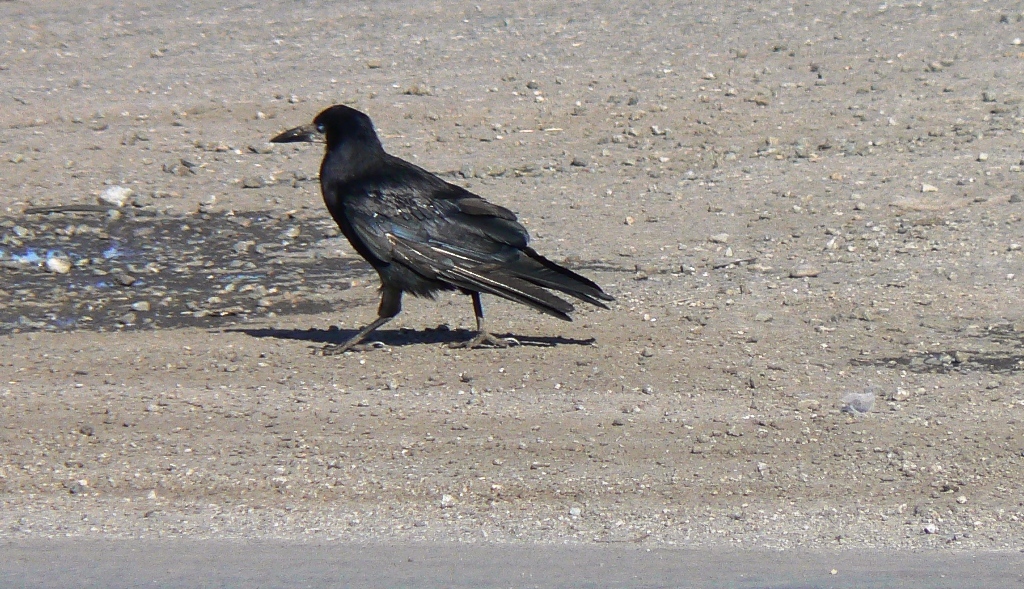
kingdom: Animalia
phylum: Chordata
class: Aves
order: Passeriformes
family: Corvidae
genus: Corvus
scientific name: Corvus frugilegus
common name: Rook
